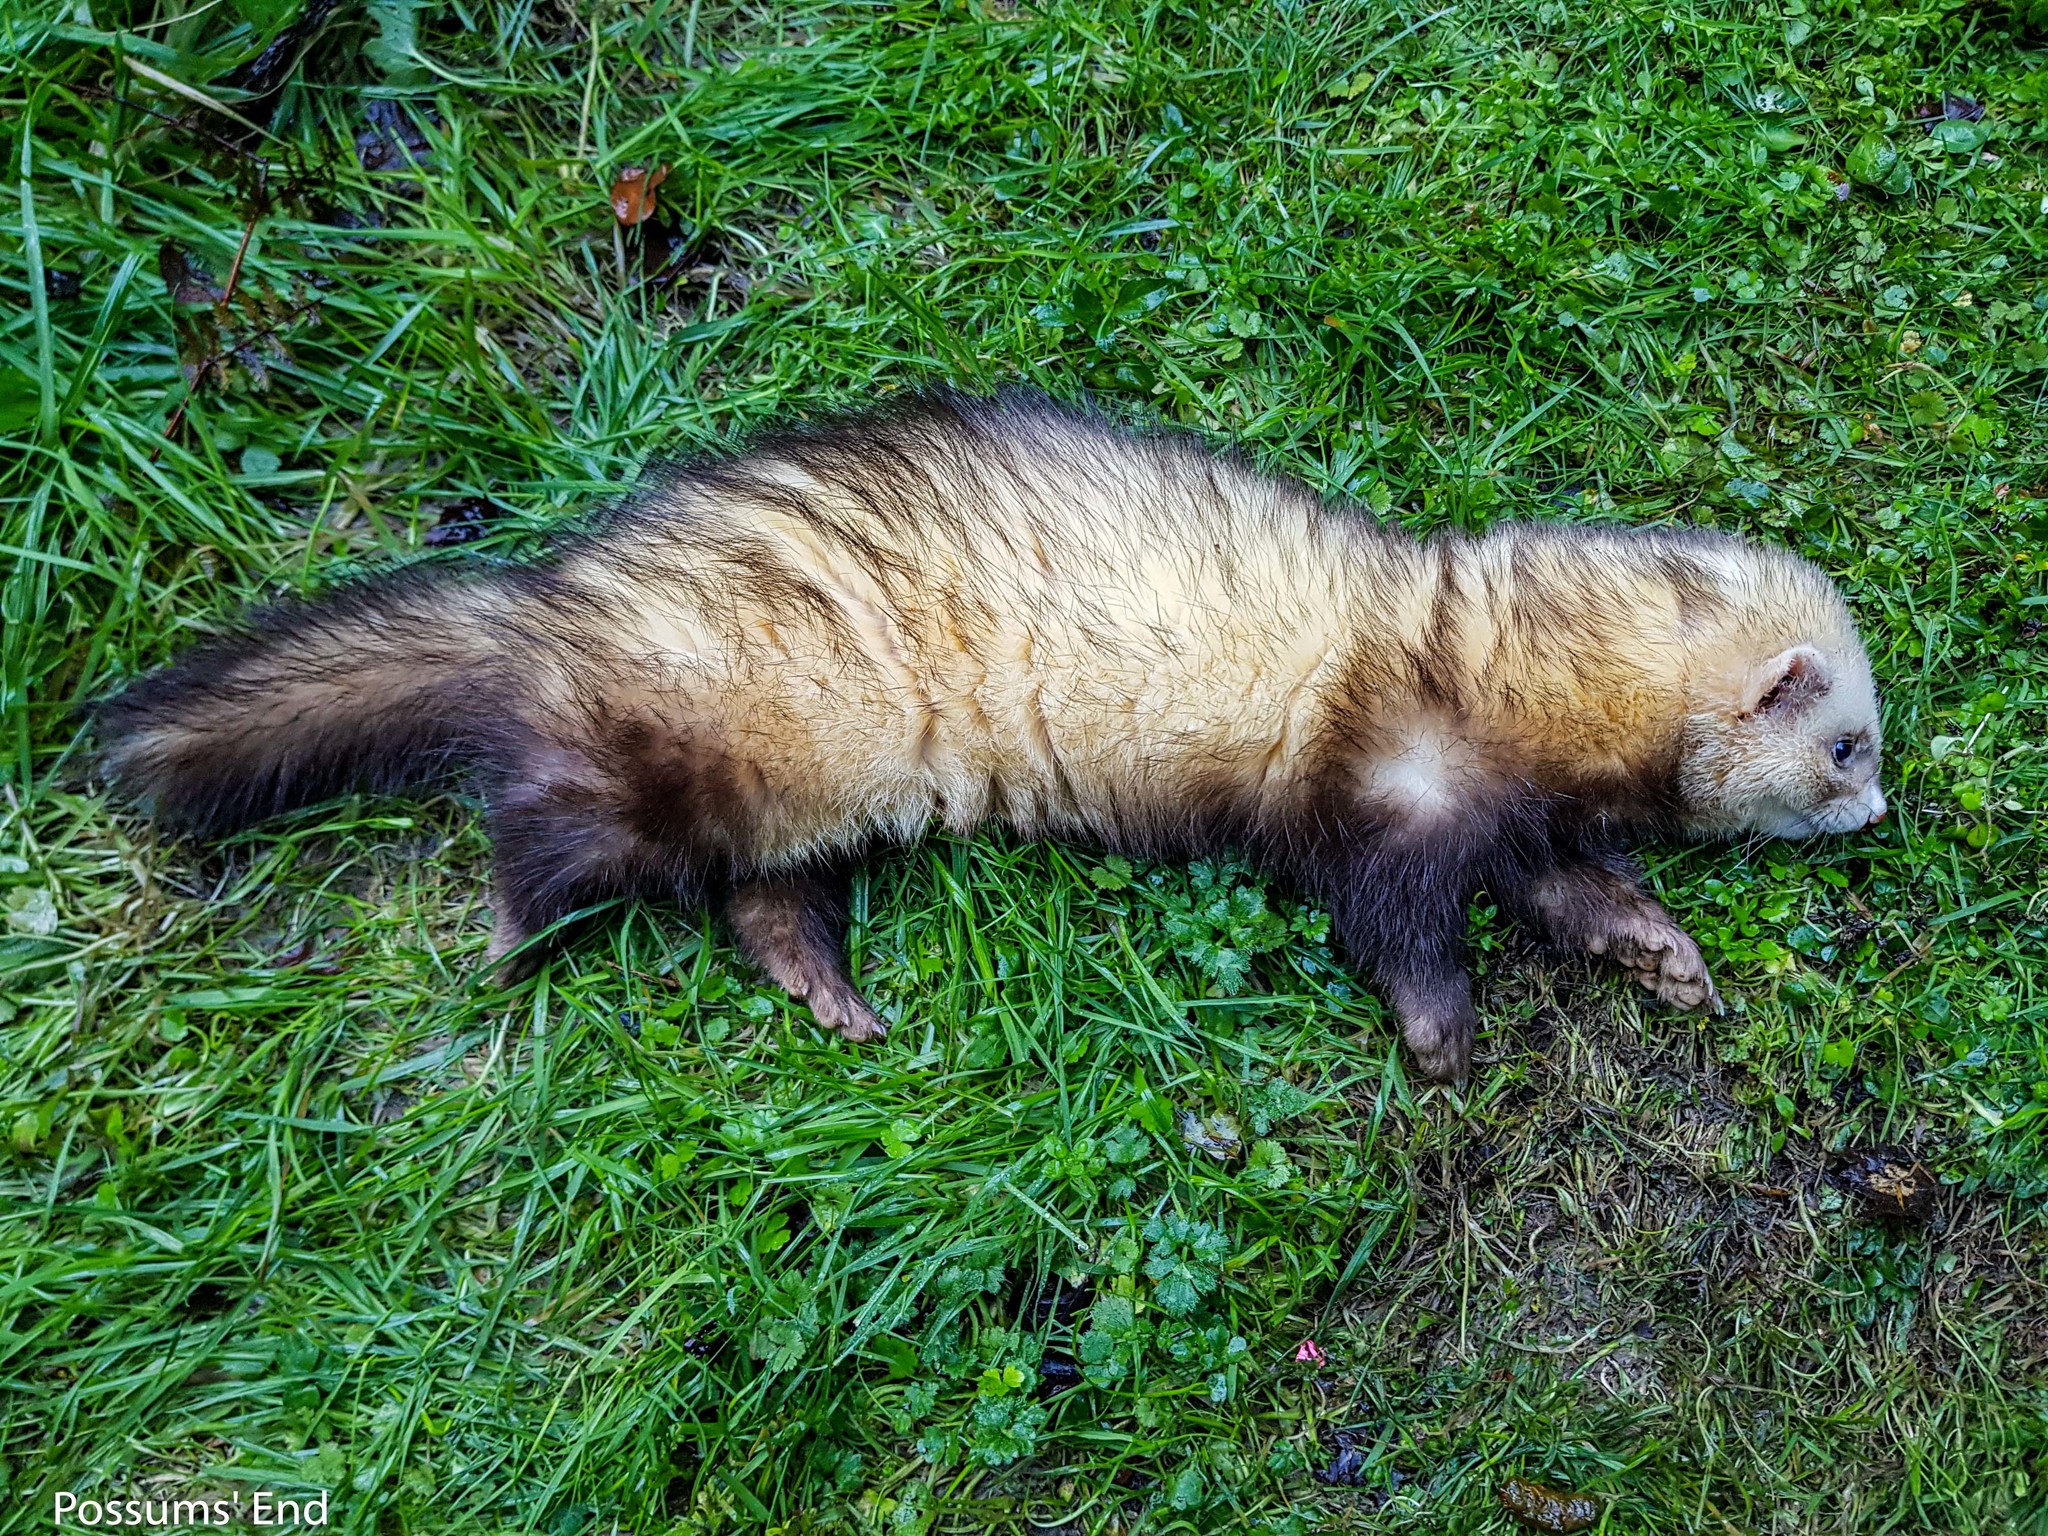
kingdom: Animalia
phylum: Chordata
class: Mammalia
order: Carnivora
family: Mustelidae
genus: Mustela
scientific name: Mustela putorius
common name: European polecat
